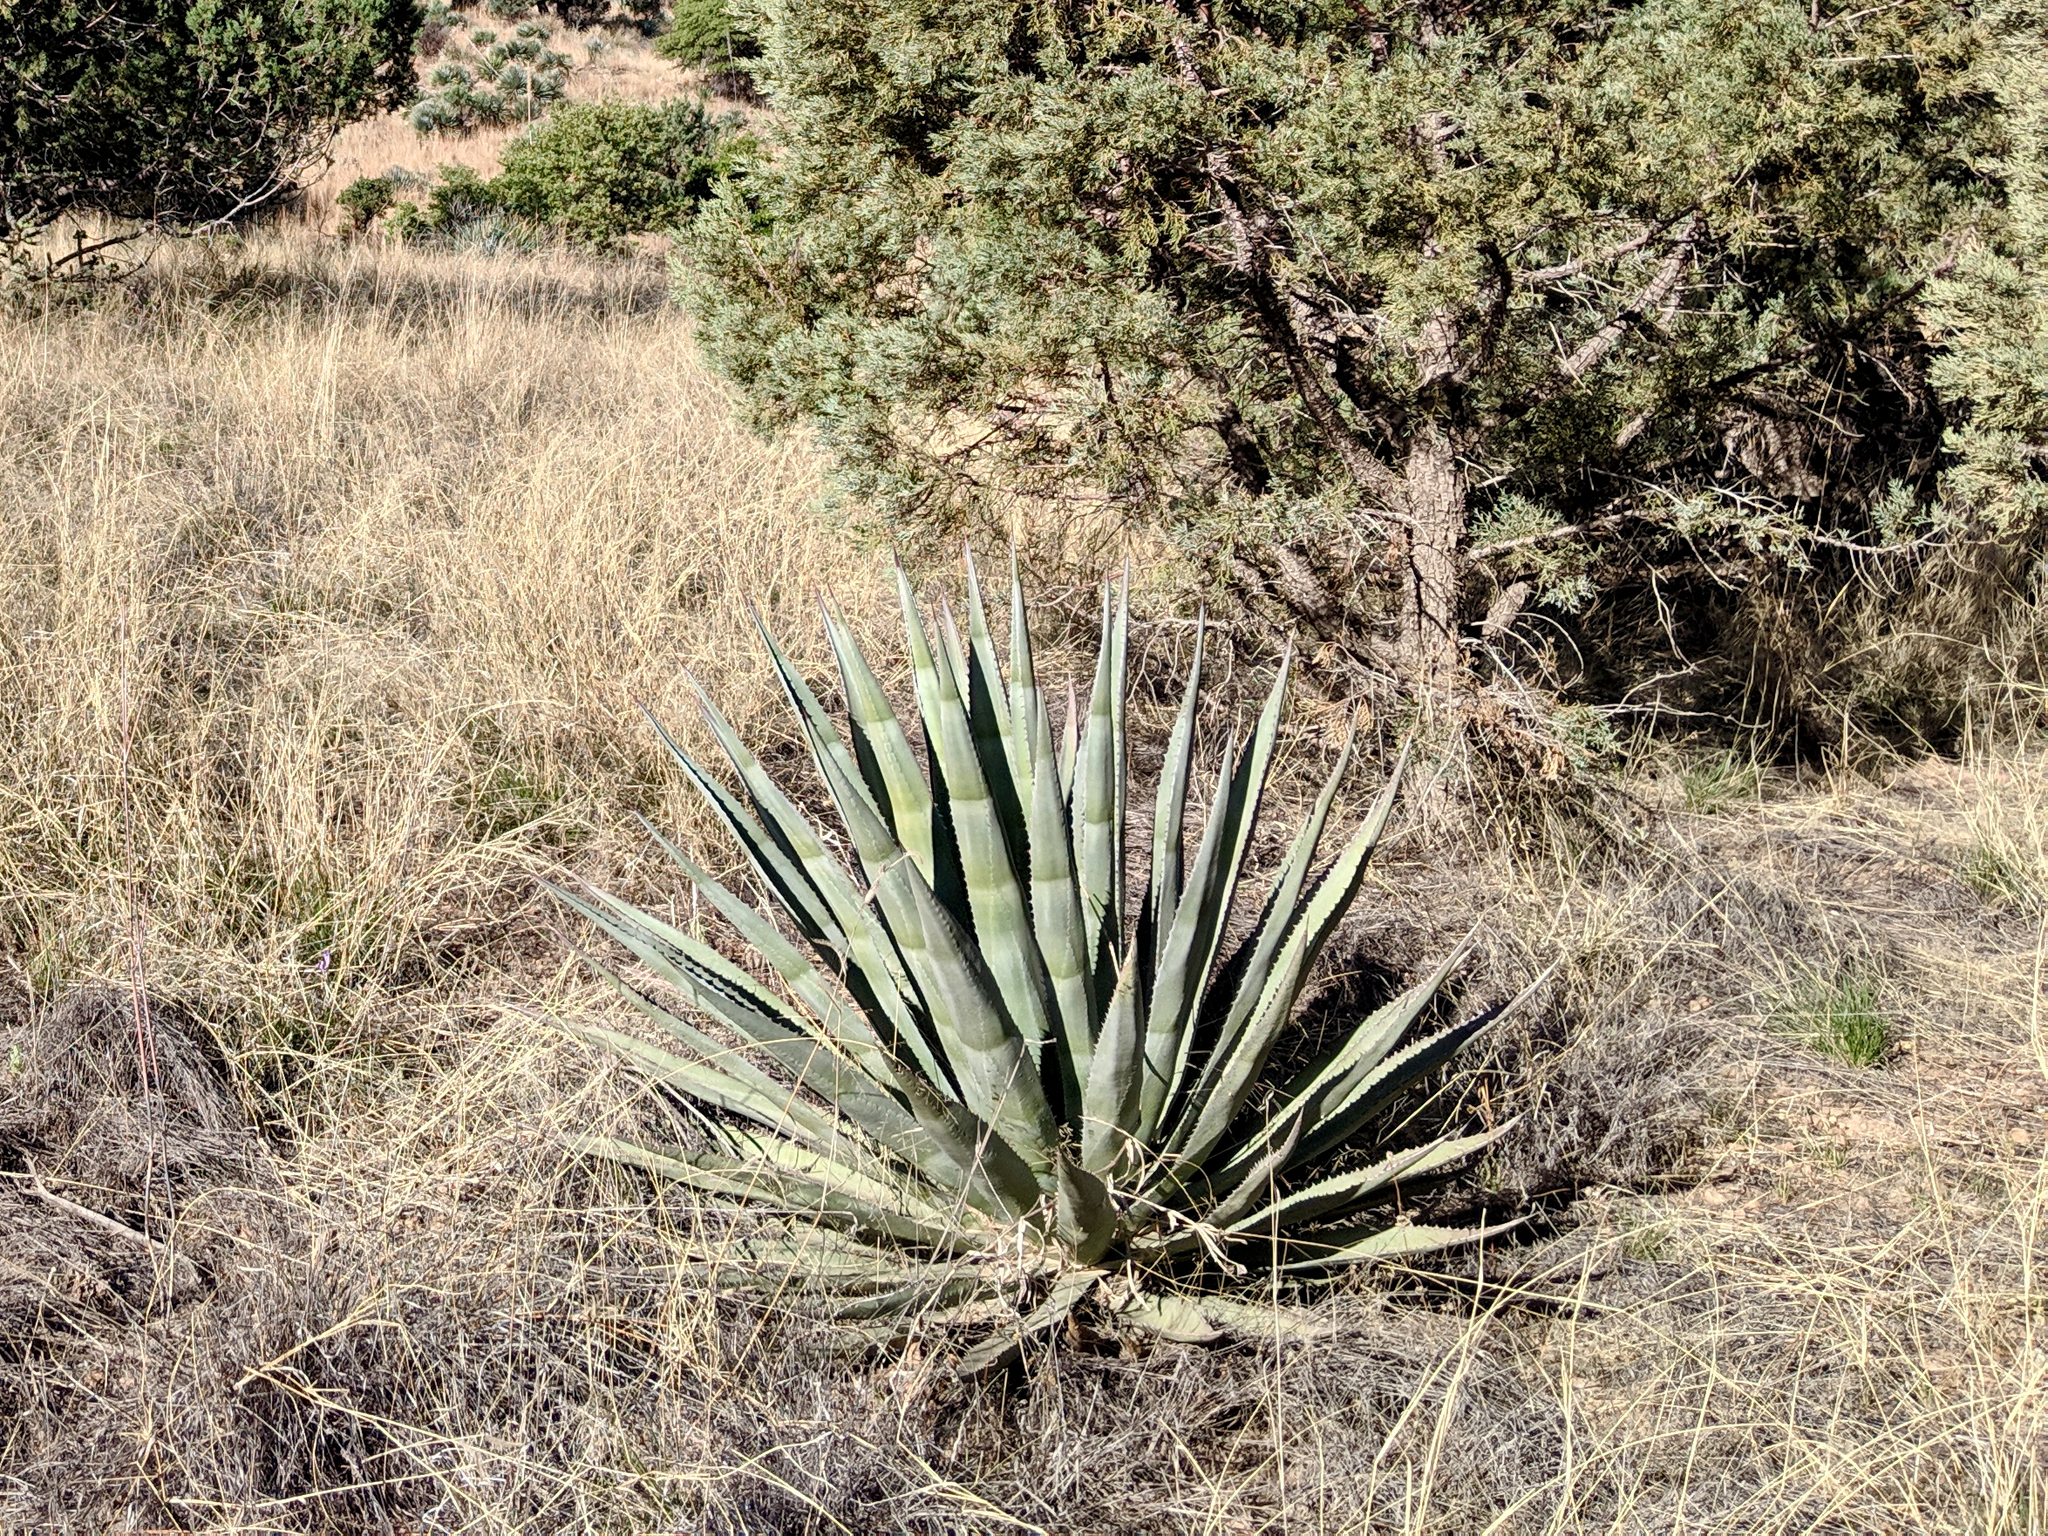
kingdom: Plantae
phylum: Tracheophyta
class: Liliopsida
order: Asparagales
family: Asparagaceae
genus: Agave
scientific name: Agave palmeri
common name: Palmer agave
